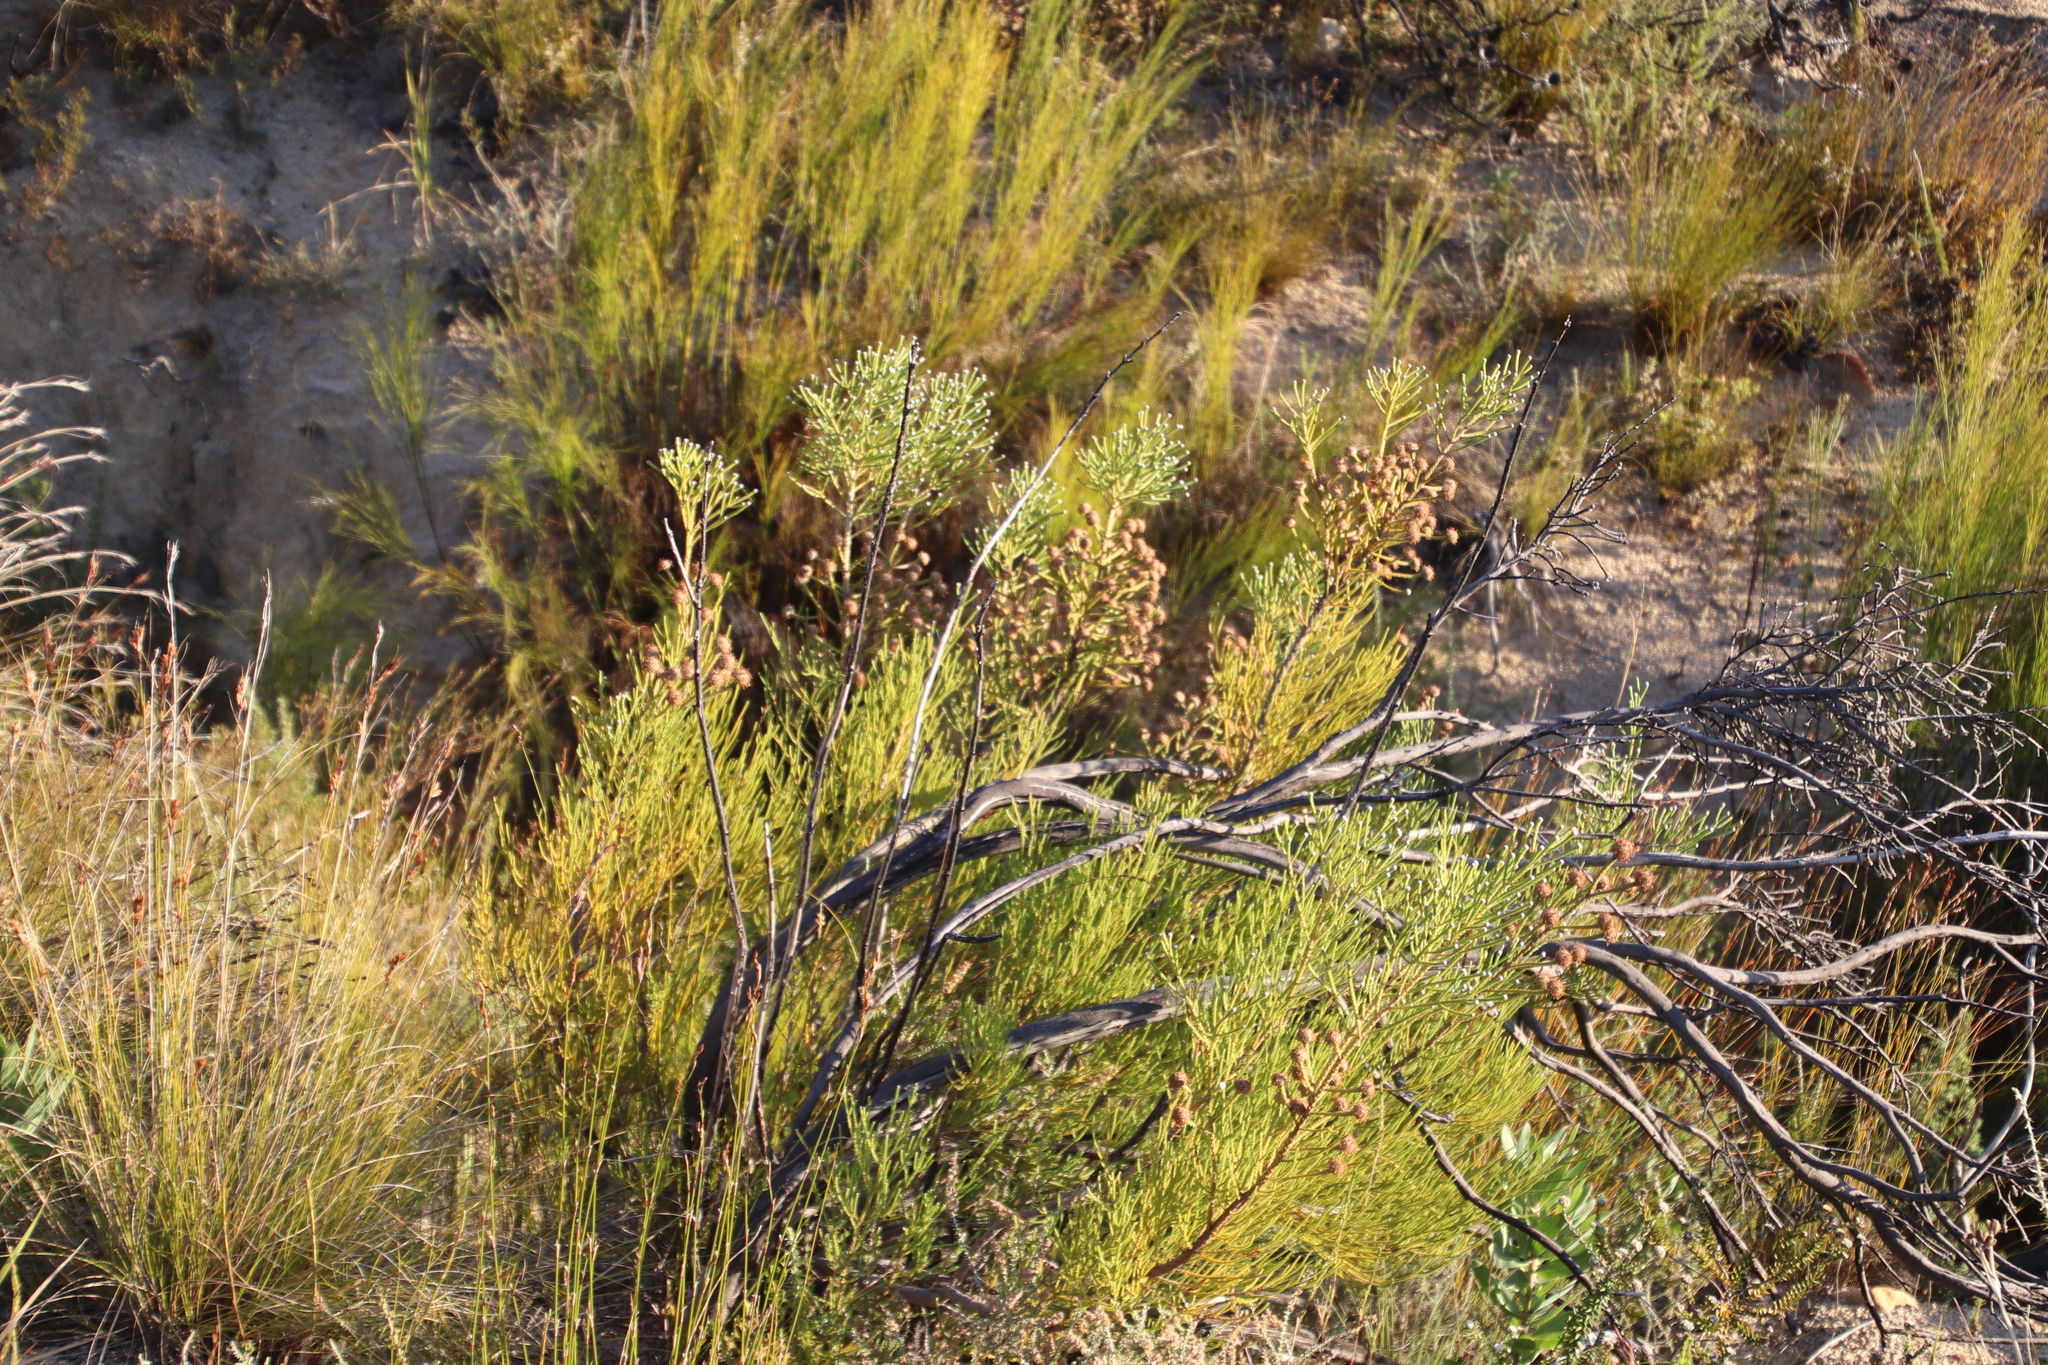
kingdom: Plantae
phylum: Tracheophyta
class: Magnoliopsida
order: Bruniales
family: Bruniaceae
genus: Brunia
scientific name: Brunia noduliflora
